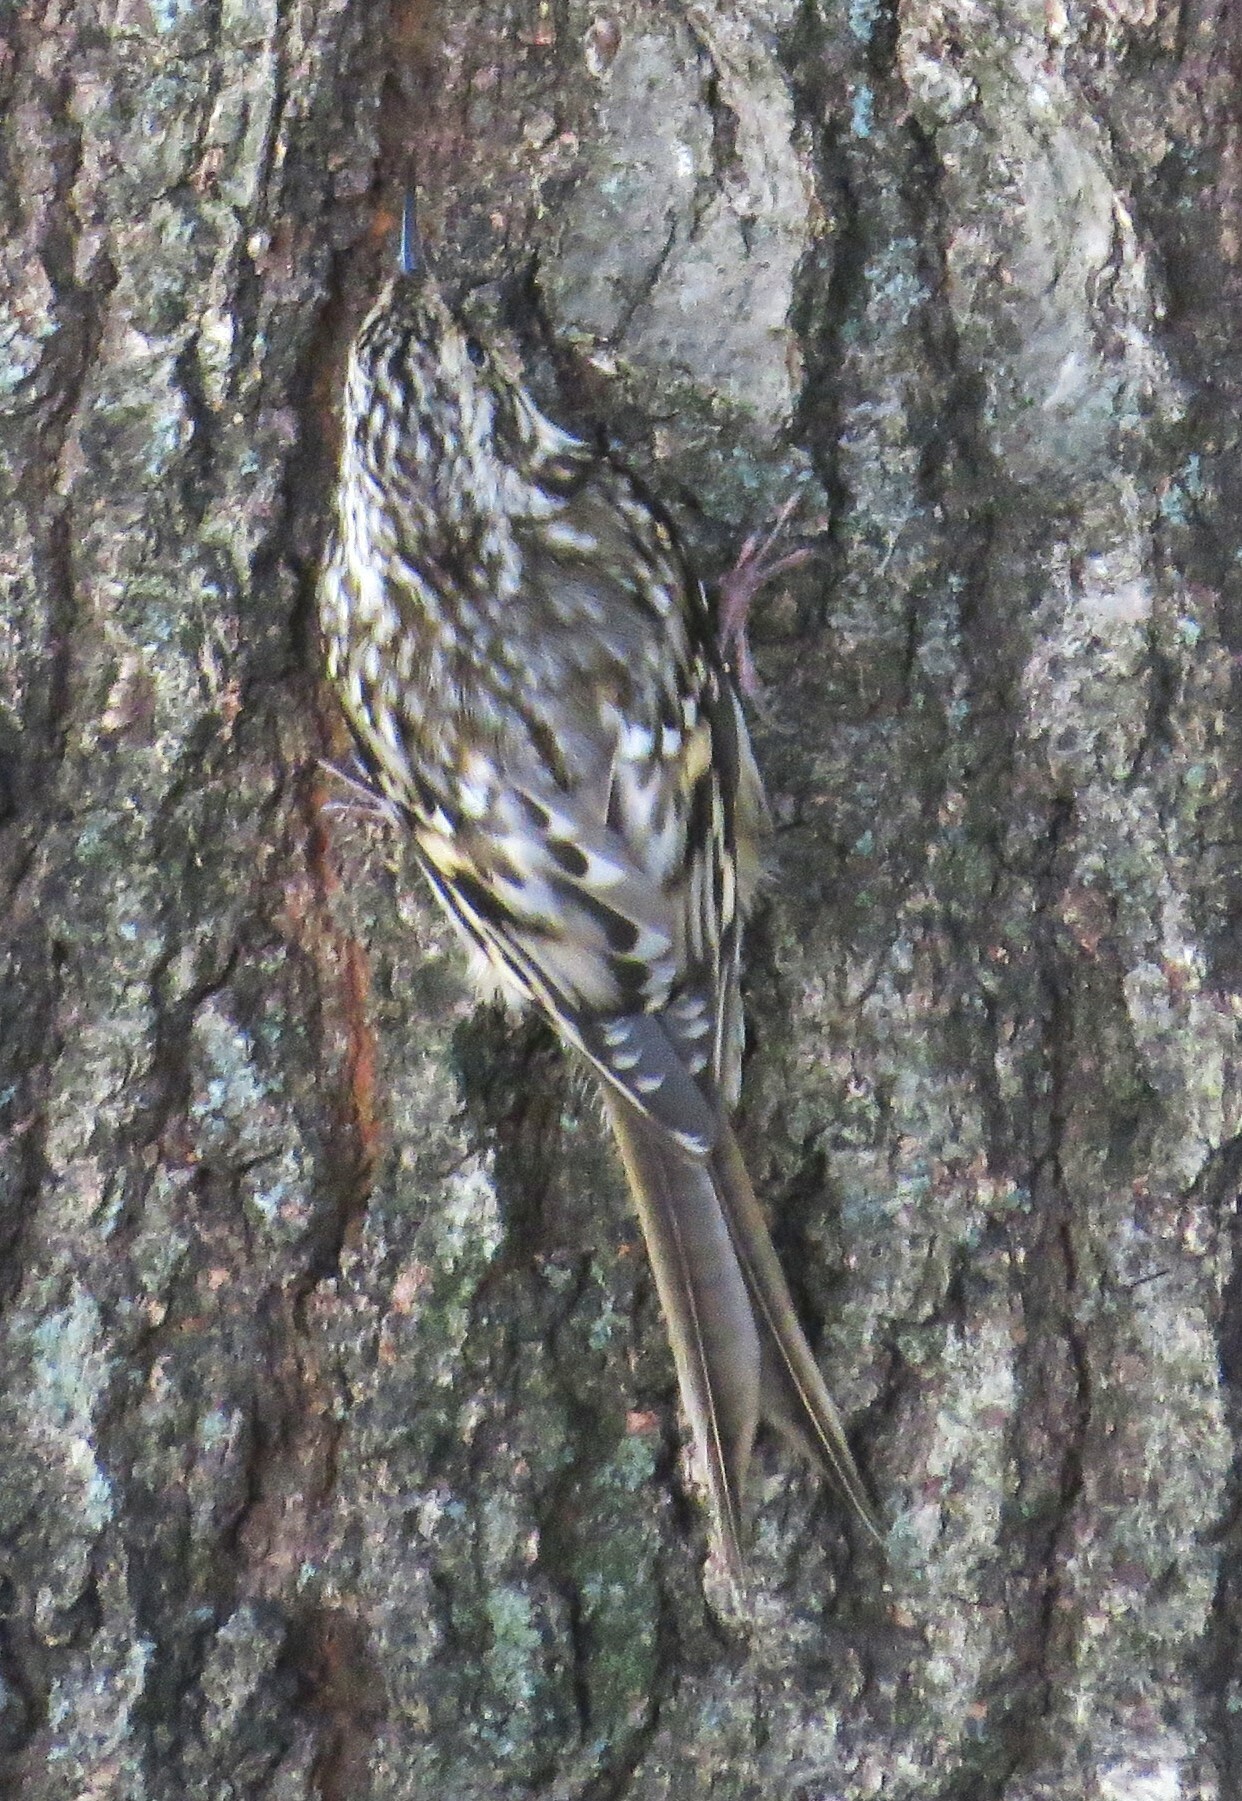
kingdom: Animalia
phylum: Chordata
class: Aves
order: Passeriformes
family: Certhiidae
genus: Certhia
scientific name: Certhia americana
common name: Brown creeper
